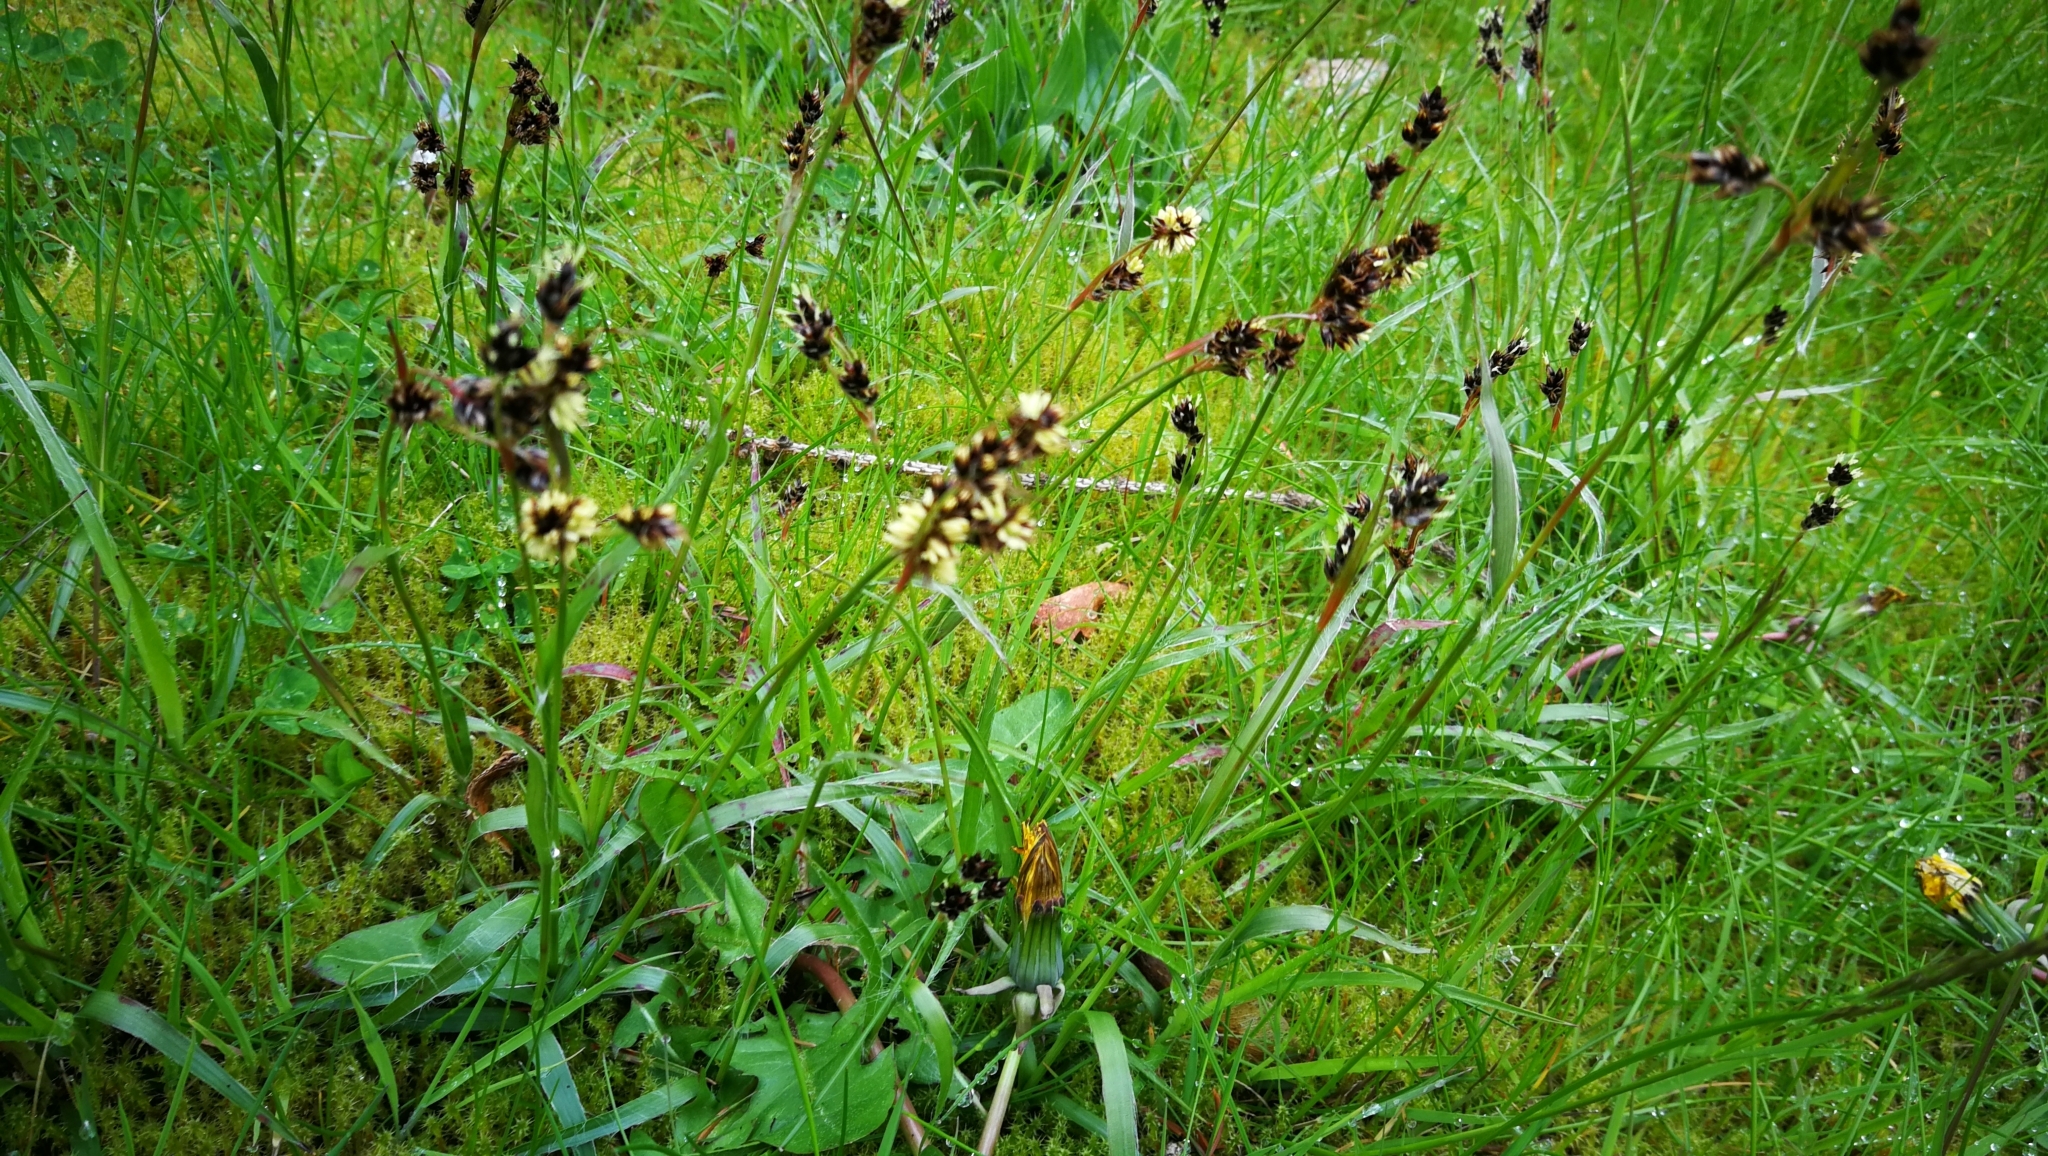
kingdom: Plantae
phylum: Tracheophyta
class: Liliopsida
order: Poales
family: Juncaceae
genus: Luzula
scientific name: Luzula campestris
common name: Field wood-rush
